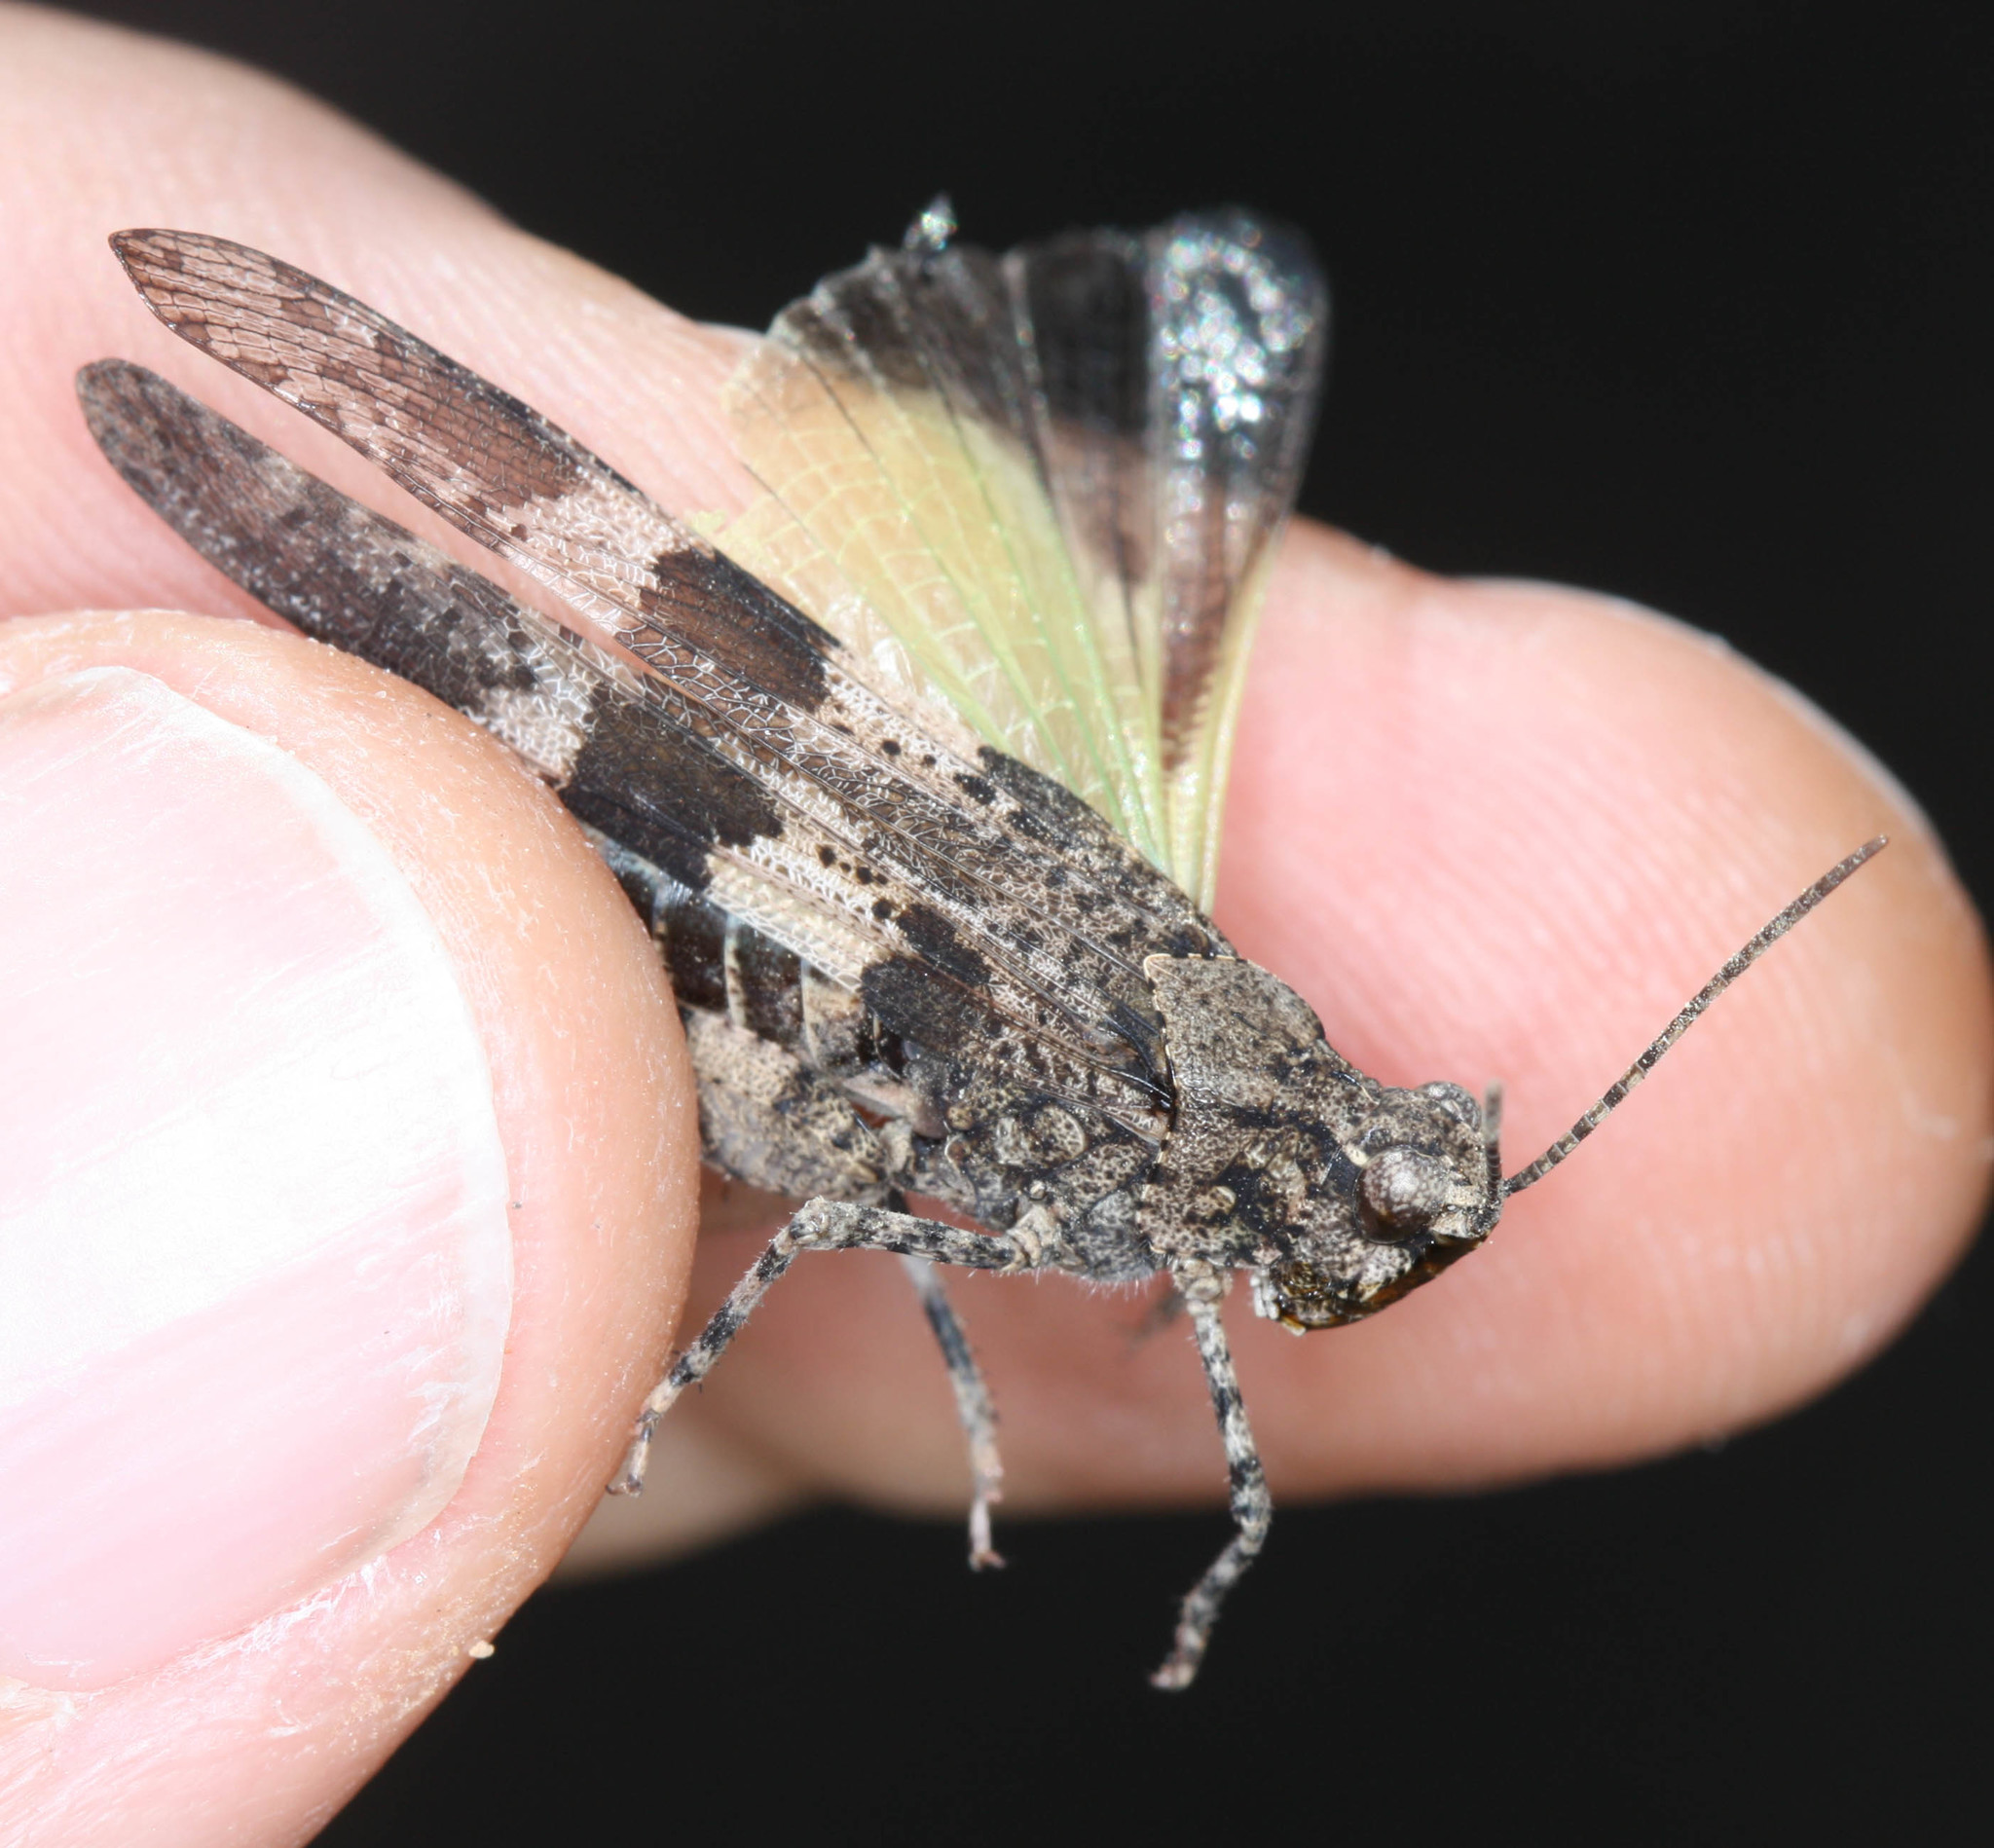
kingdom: Animalia
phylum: Arthropoda
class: Insecta
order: Orthoptera
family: Acrididae
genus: Trimerotropis
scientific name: Trimerotropis fontana
